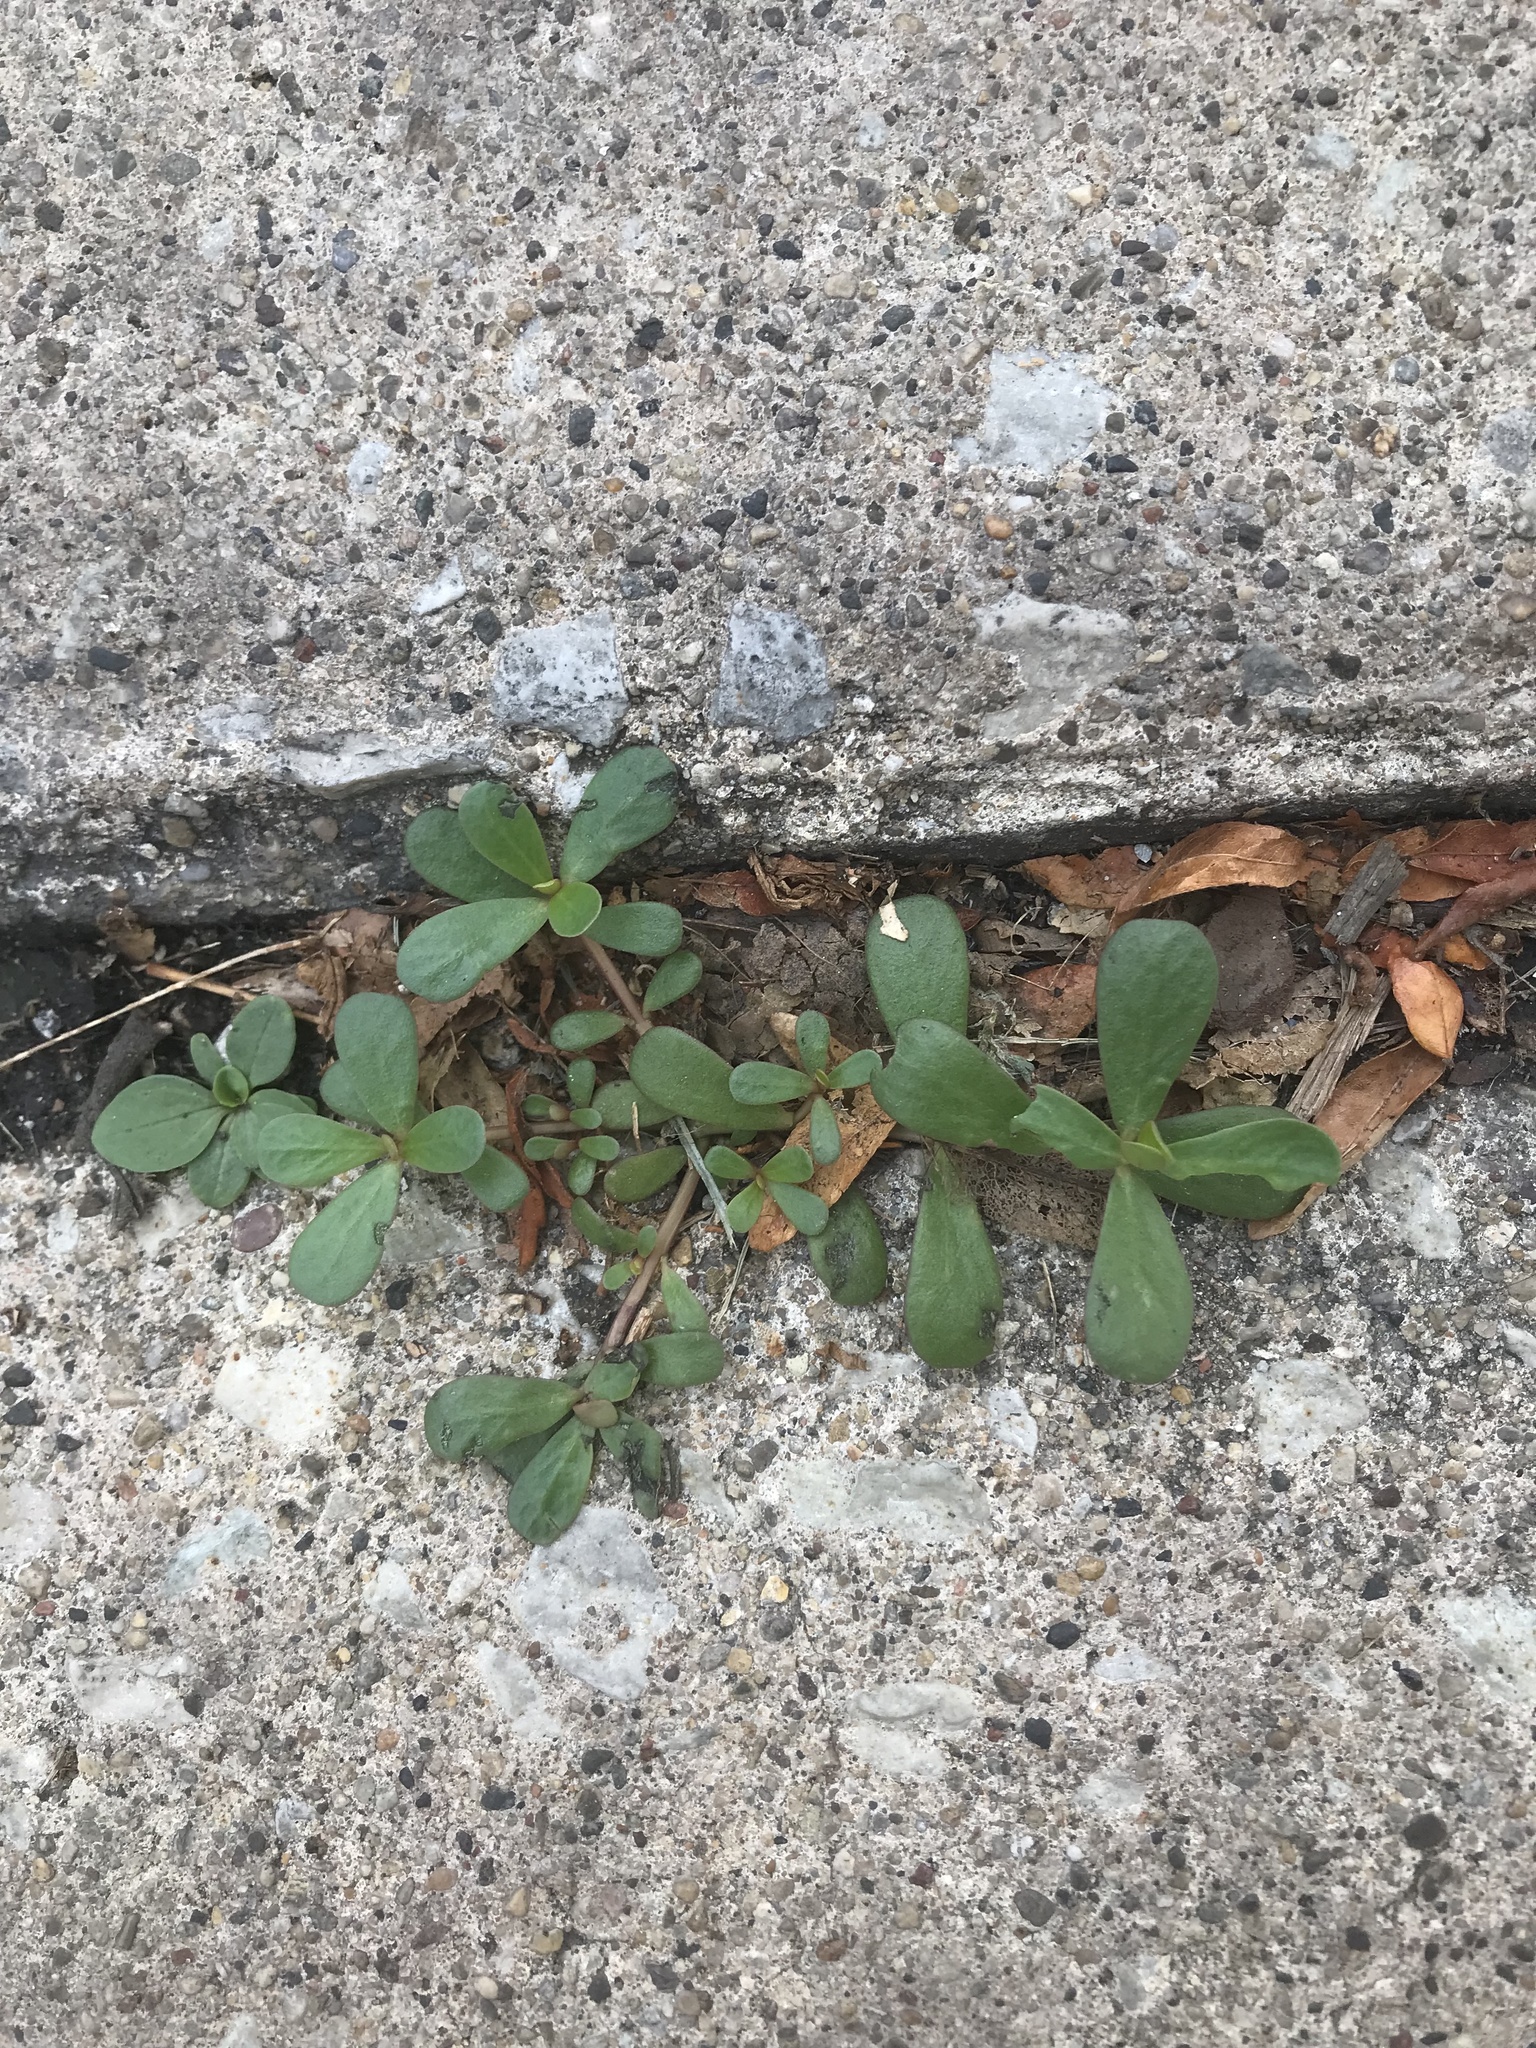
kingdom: Plantae
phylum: Tracheophyta
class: Magnoliopsida
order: Caryophyllales
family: Portulacaceae
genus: Portulaca
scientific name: Portulaca oleracea
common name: Common purslane
